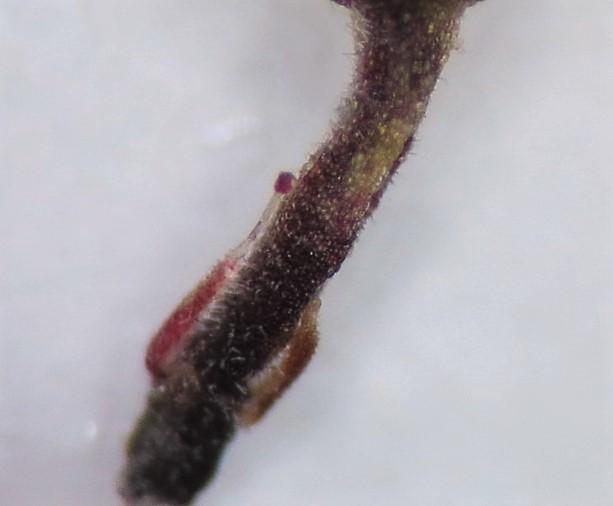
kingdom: Plantae
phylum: Tracheophyta
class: Magnoliopsida
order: Ericales
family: Ericaceae
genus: Erica
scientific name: Erica racemosa
